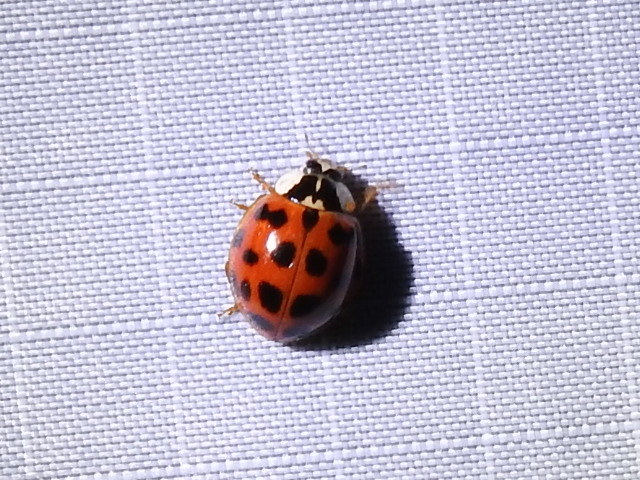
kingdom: Animalia
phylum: Arthropoda
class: Insecta
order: Coleoptera
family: Coccinellidae
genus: Harmonia
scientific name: Harmonia axyridis
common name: Harlequin ladybird
